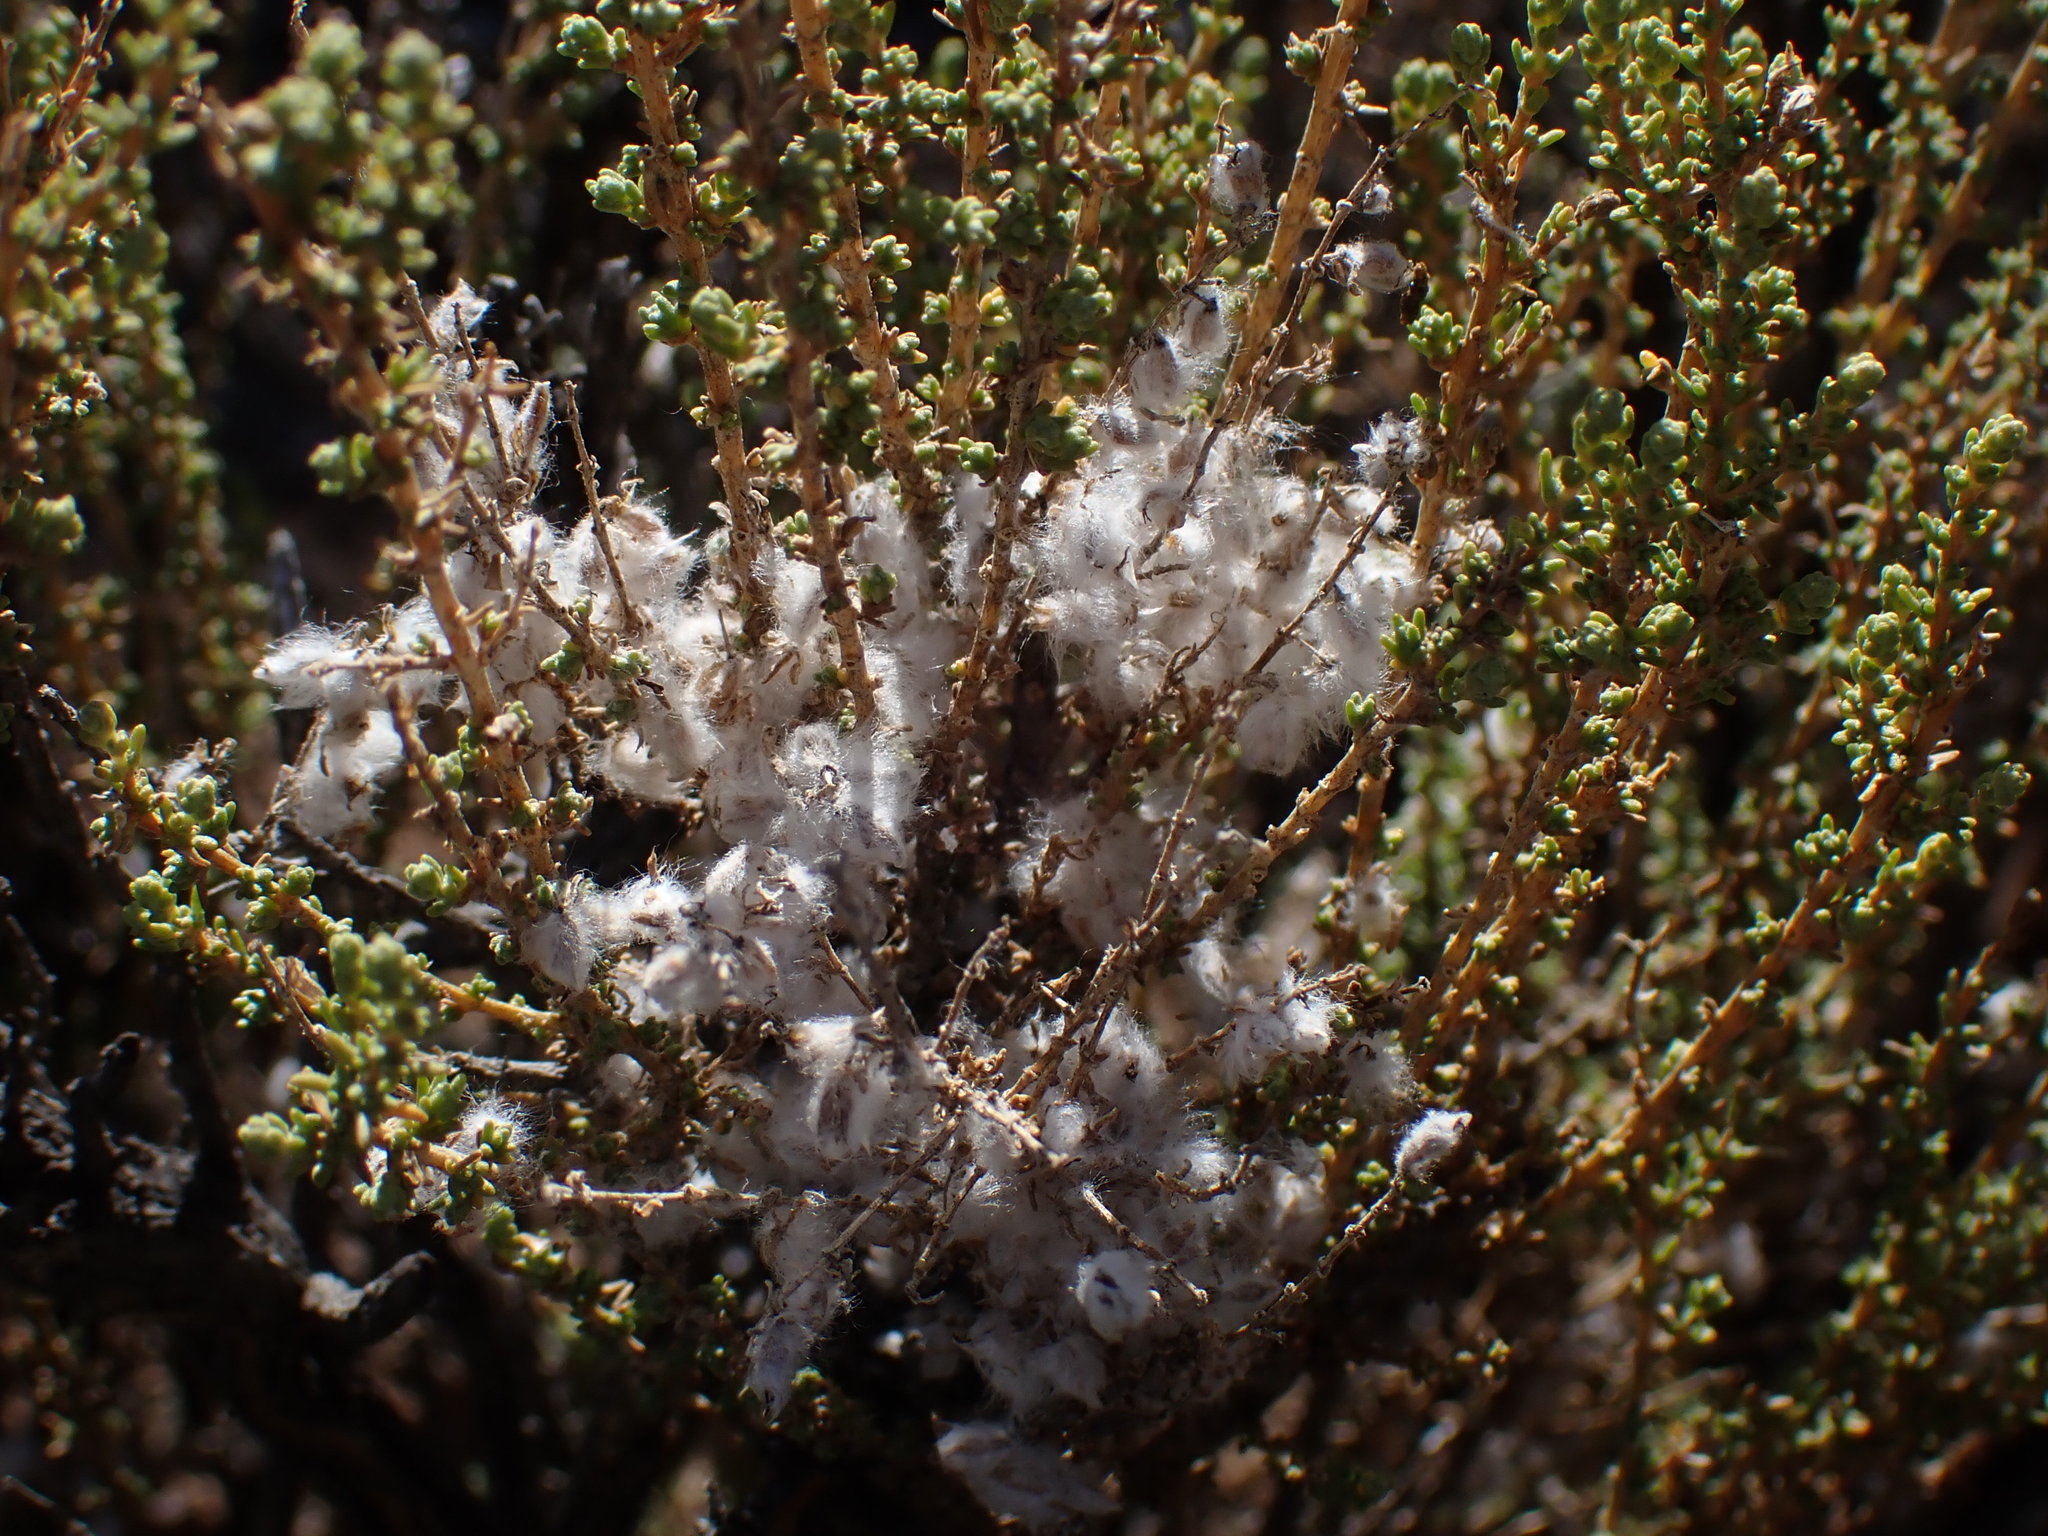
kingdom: Plantae
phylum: Tracheophyta
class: Magnoliopsida
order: Asterales
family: Asteraceae
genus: Eriocephalus
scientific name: Eriocephalus ericoides
